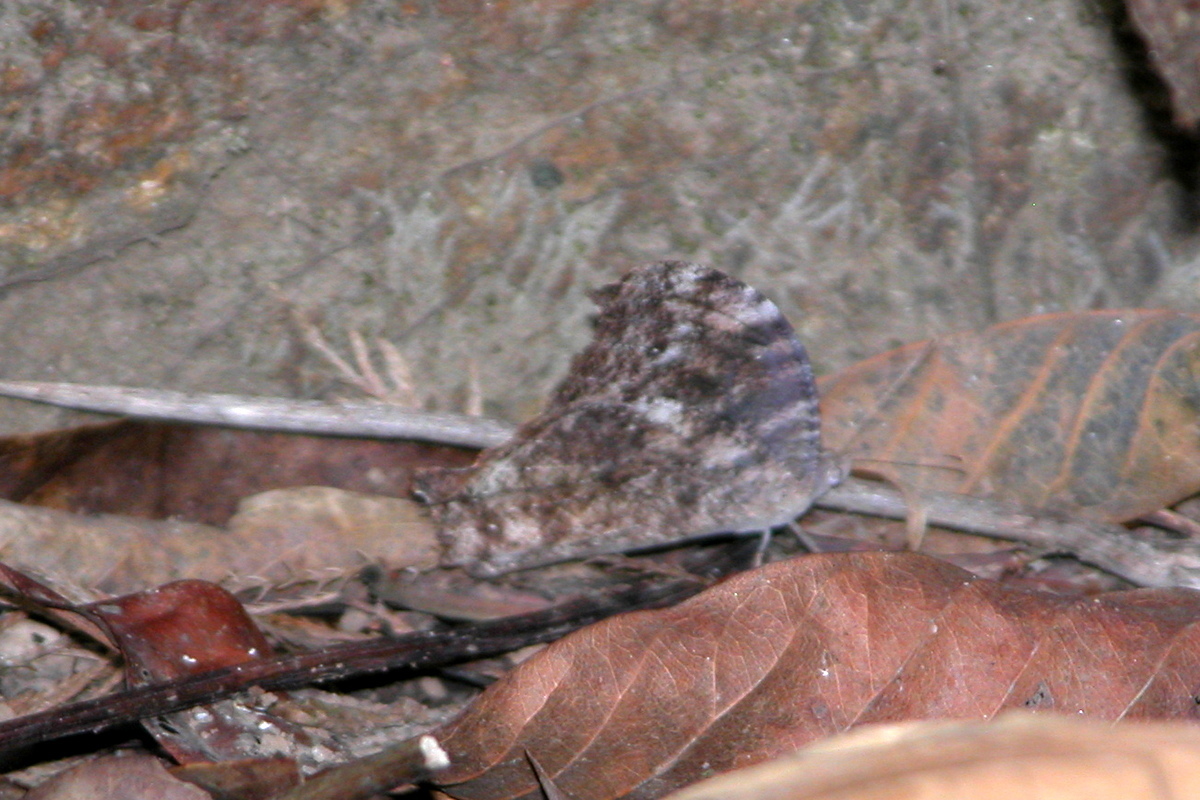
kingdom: Animalia
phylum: Arthropoda
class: Insecta
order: Lepidoptera
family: Nymphalidae
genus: Melanitis
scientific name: Melanitis leda
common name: Twilight brown
